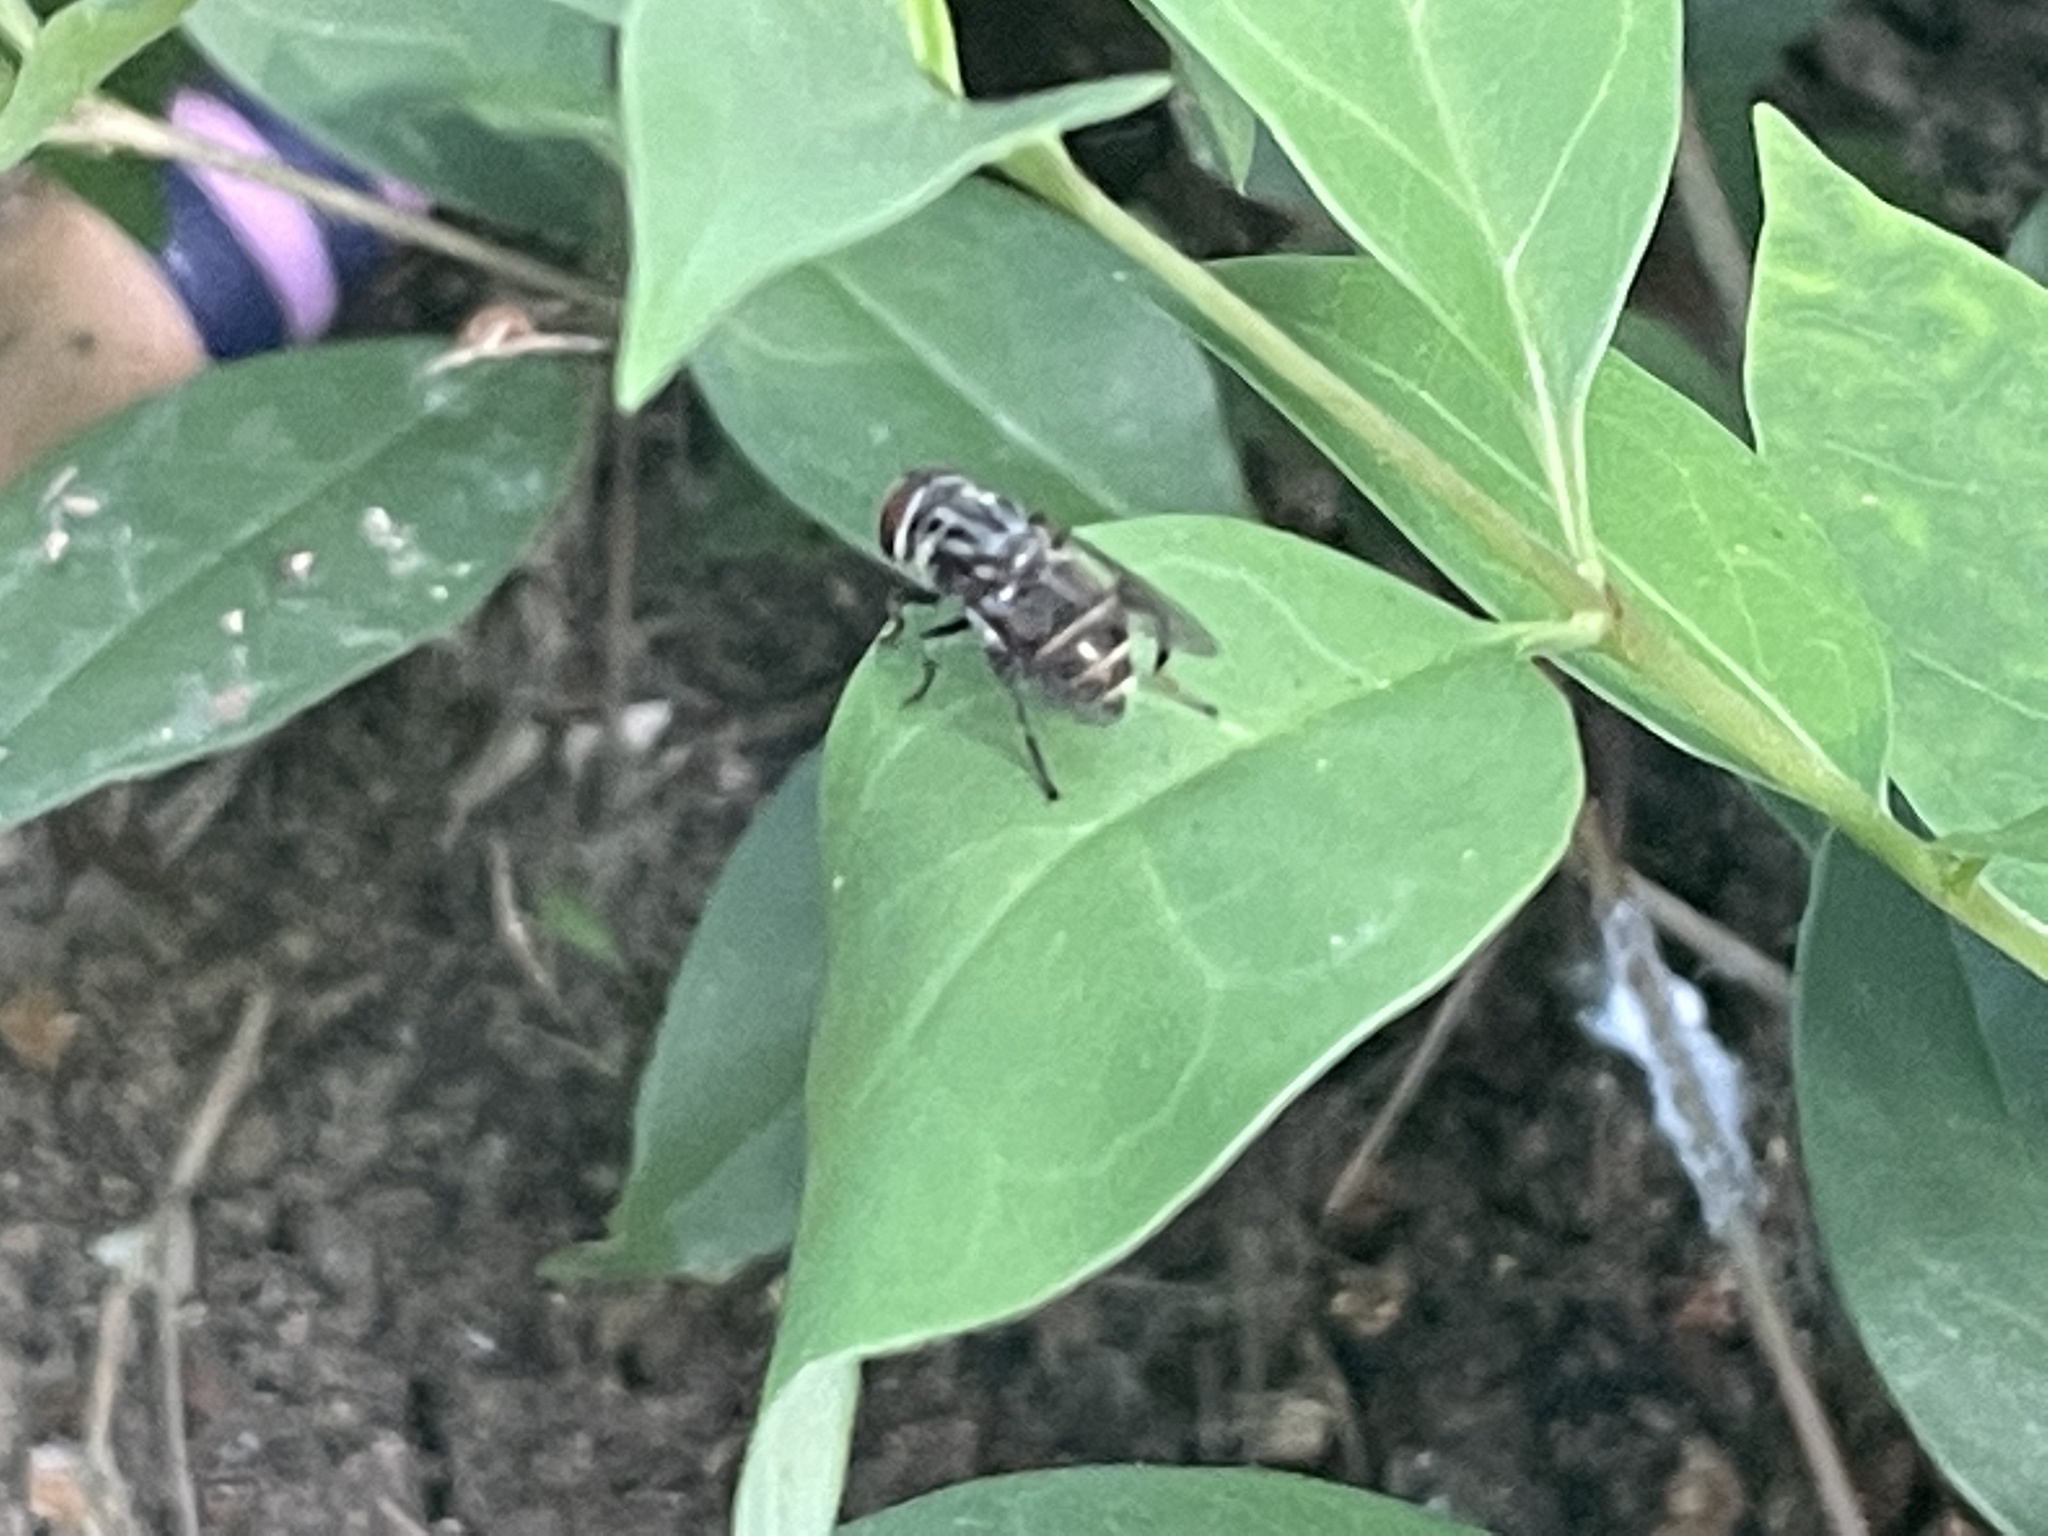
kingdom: Animalia
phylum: Arthropoda
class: Insecta
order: Diptera
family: Syrphidae
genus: Palpada
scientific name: Palpada furcata
